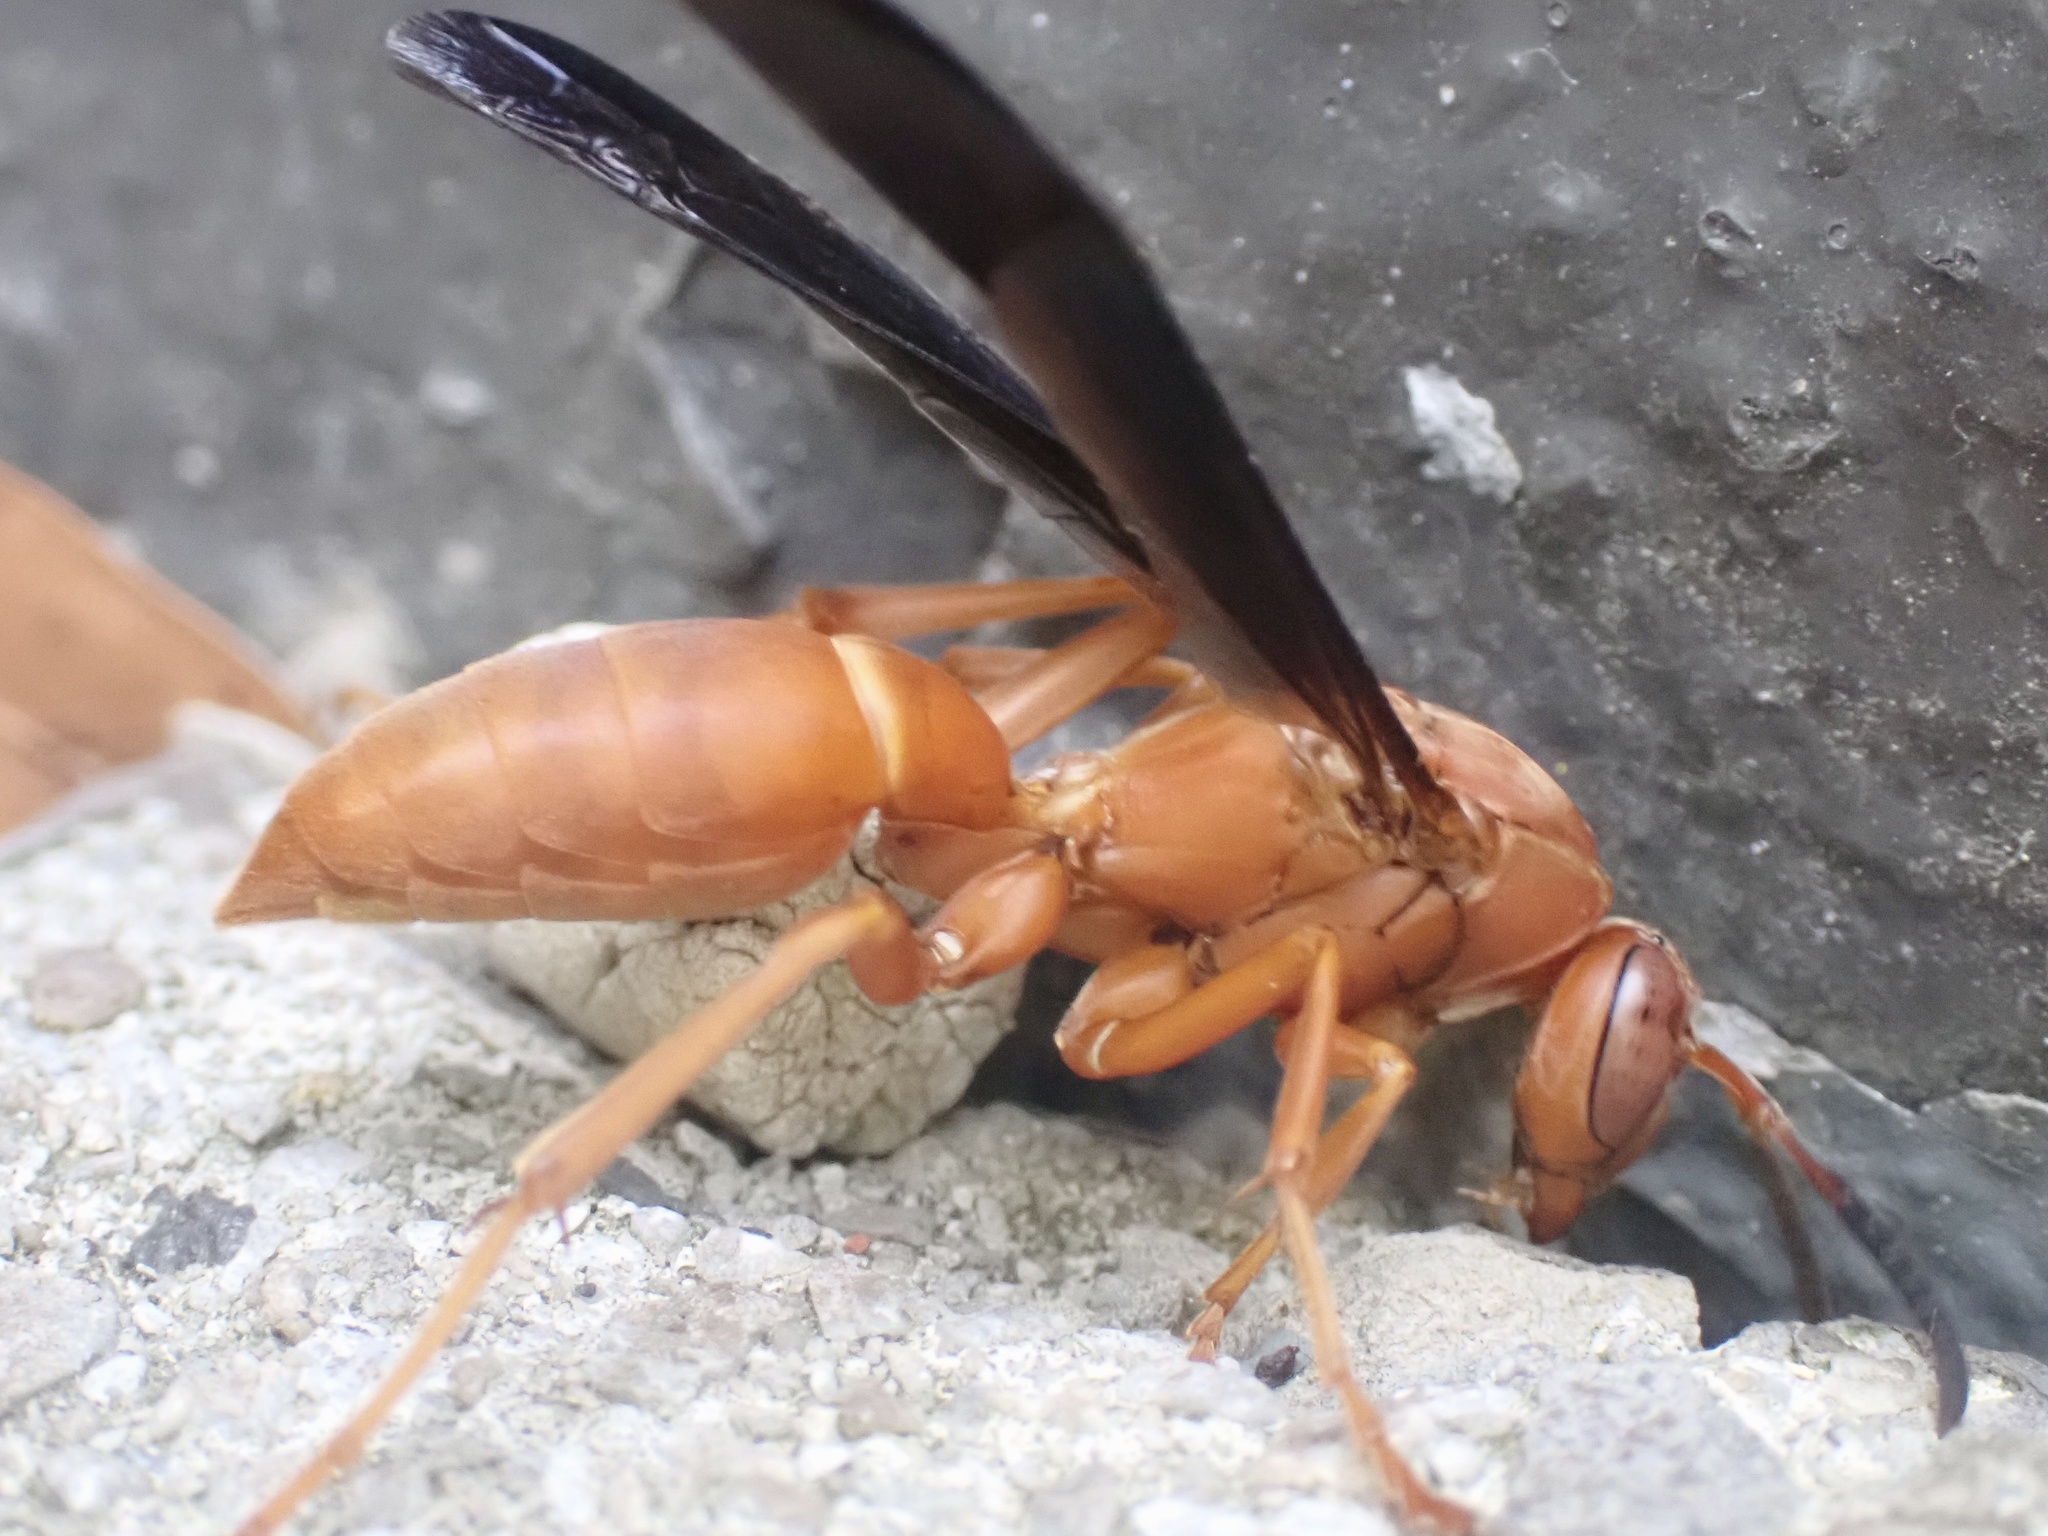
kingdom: Animalia
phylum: Arthropoda
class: Insecta
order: Hymenoptera
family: Eumenidae
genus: Polistes
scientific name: Polistes carolina
